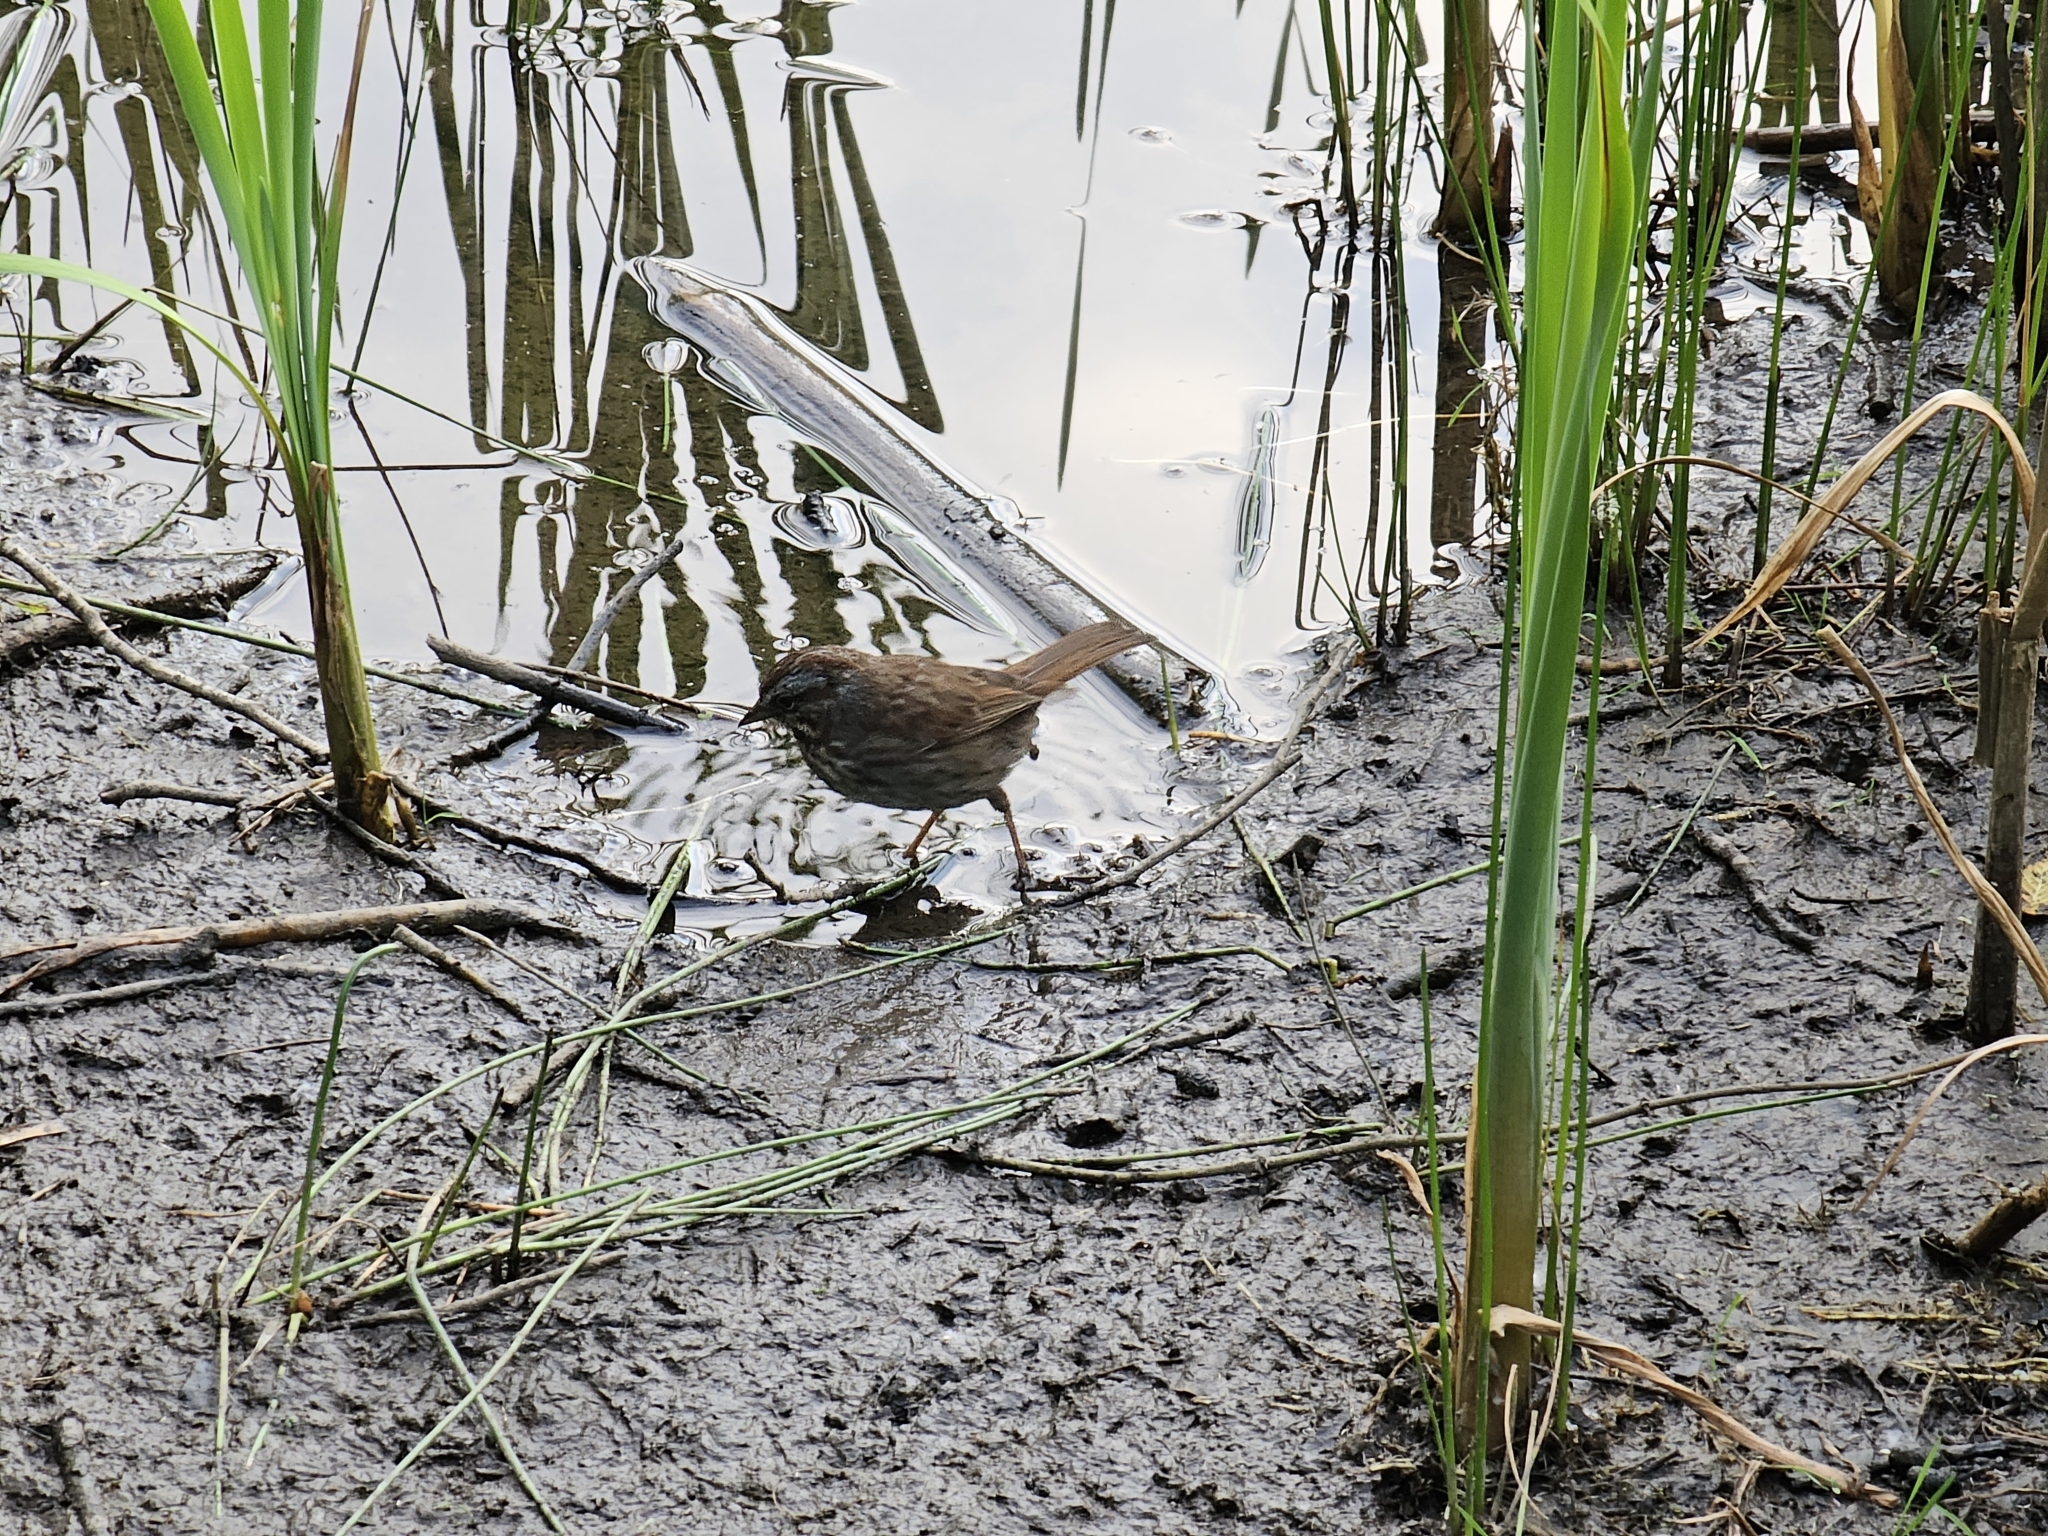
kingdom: Animalia
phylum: Chordata
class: Aves
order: Passeriformes
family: Passerellidae
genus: Melospiza
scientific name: Melospiza melodia
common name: Song sparrow
